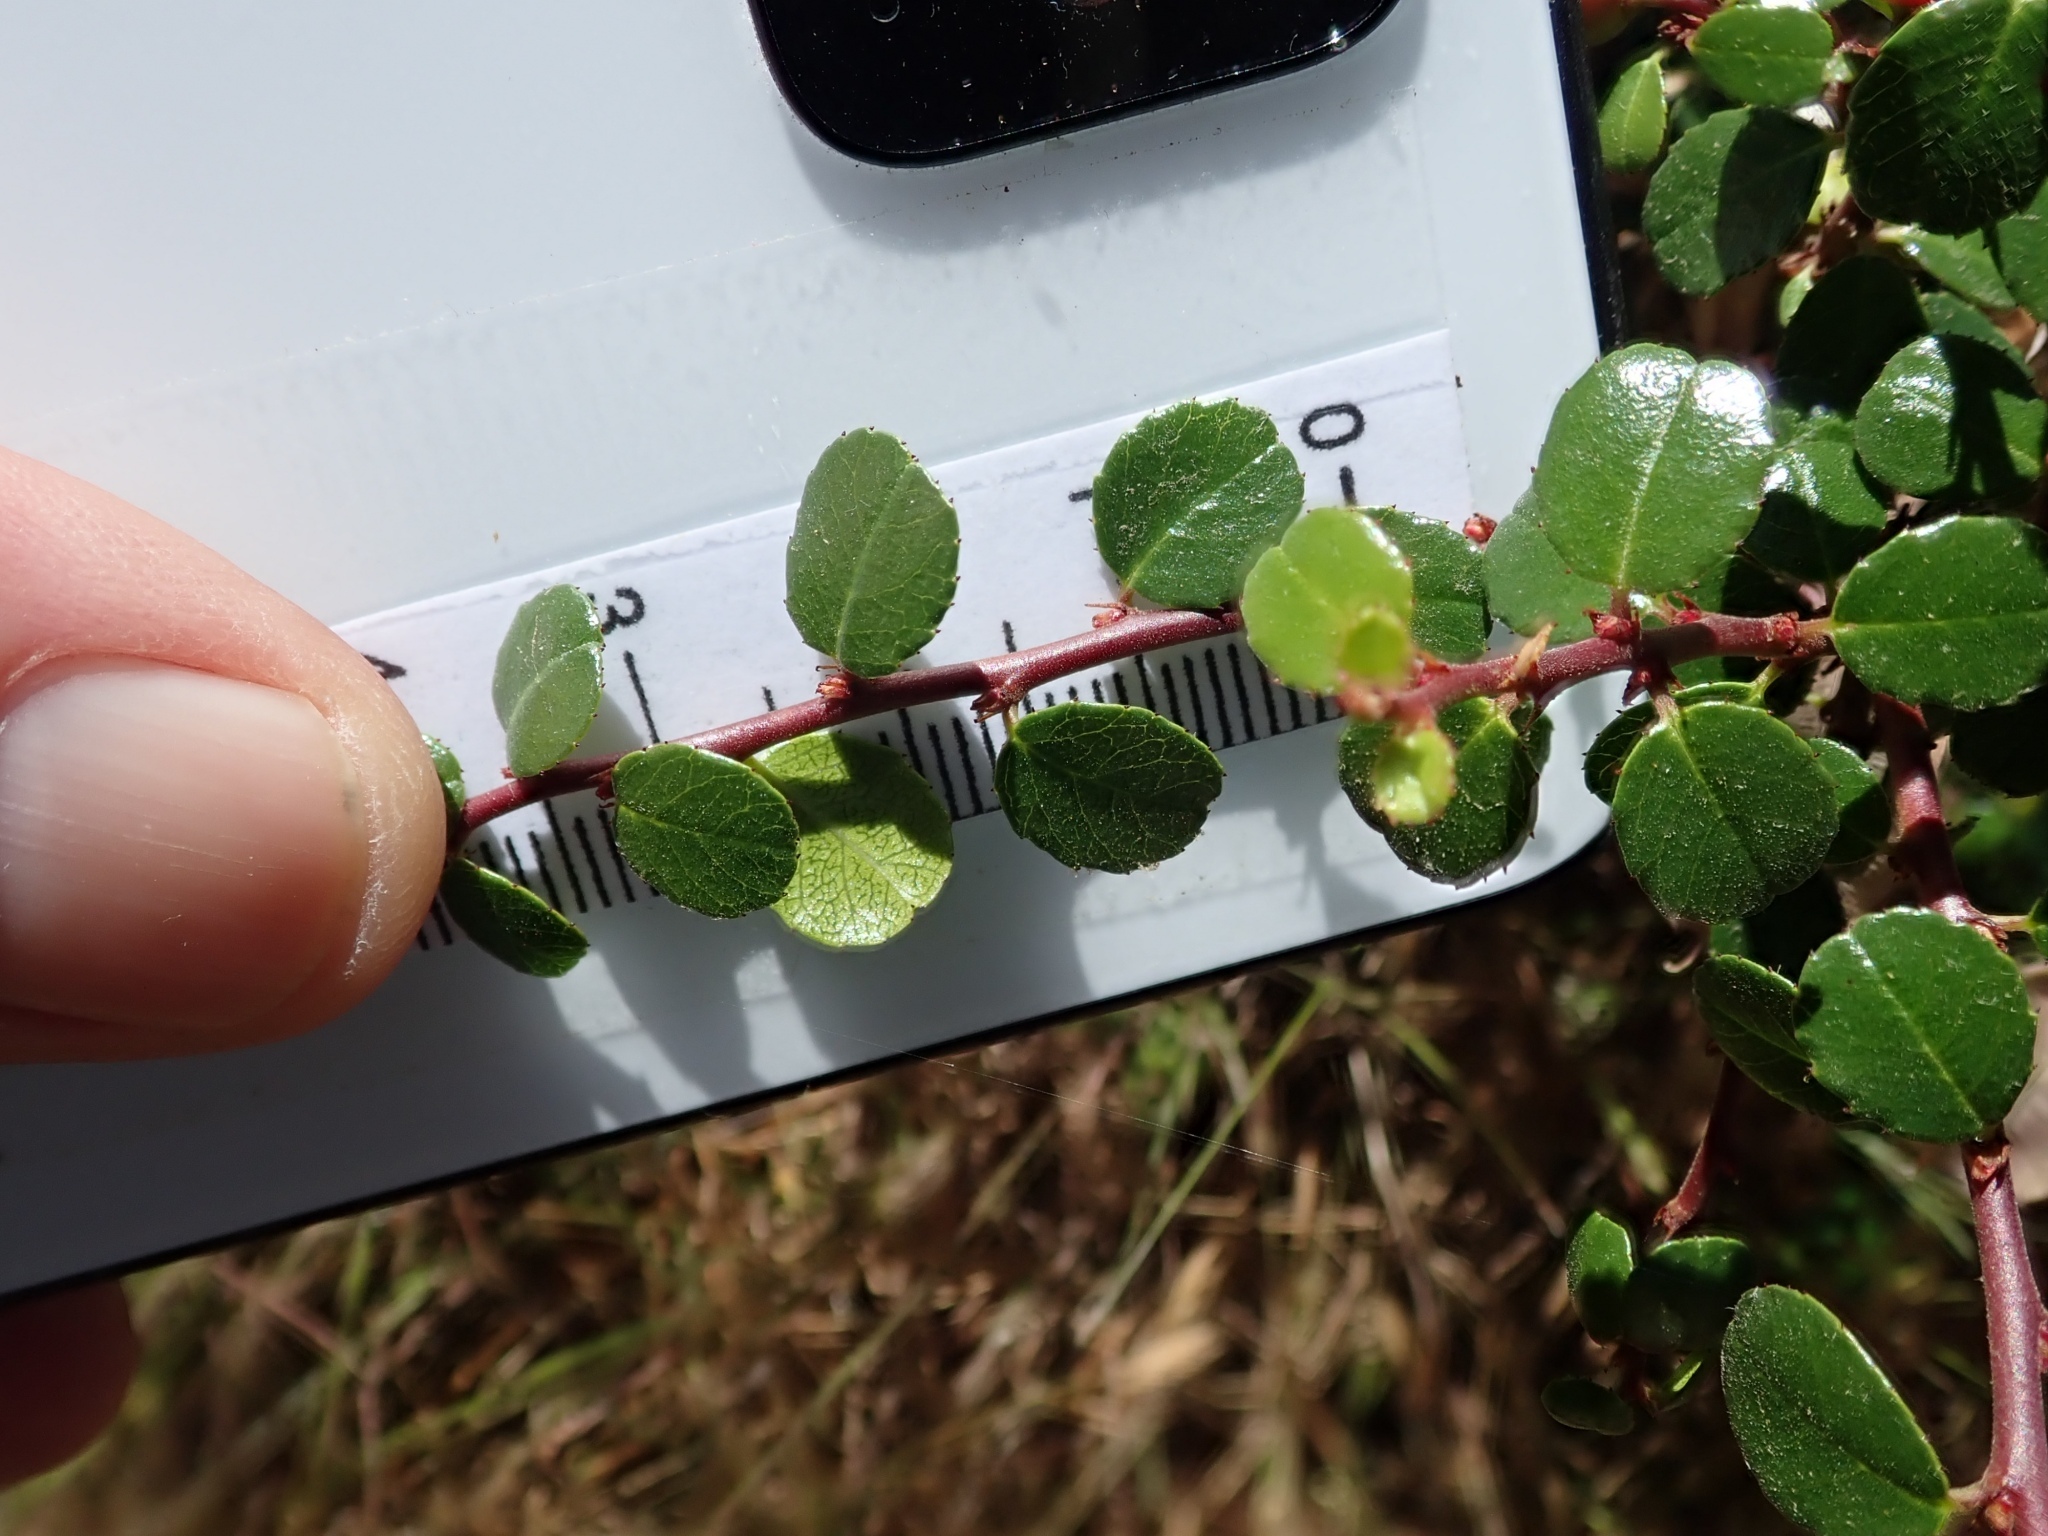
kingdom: Plantae
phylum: Tracheophyta
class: Magnoliopsida
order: Rosales
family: Rhamnaceae
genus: Endotropis
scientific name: Endotropis crocea
